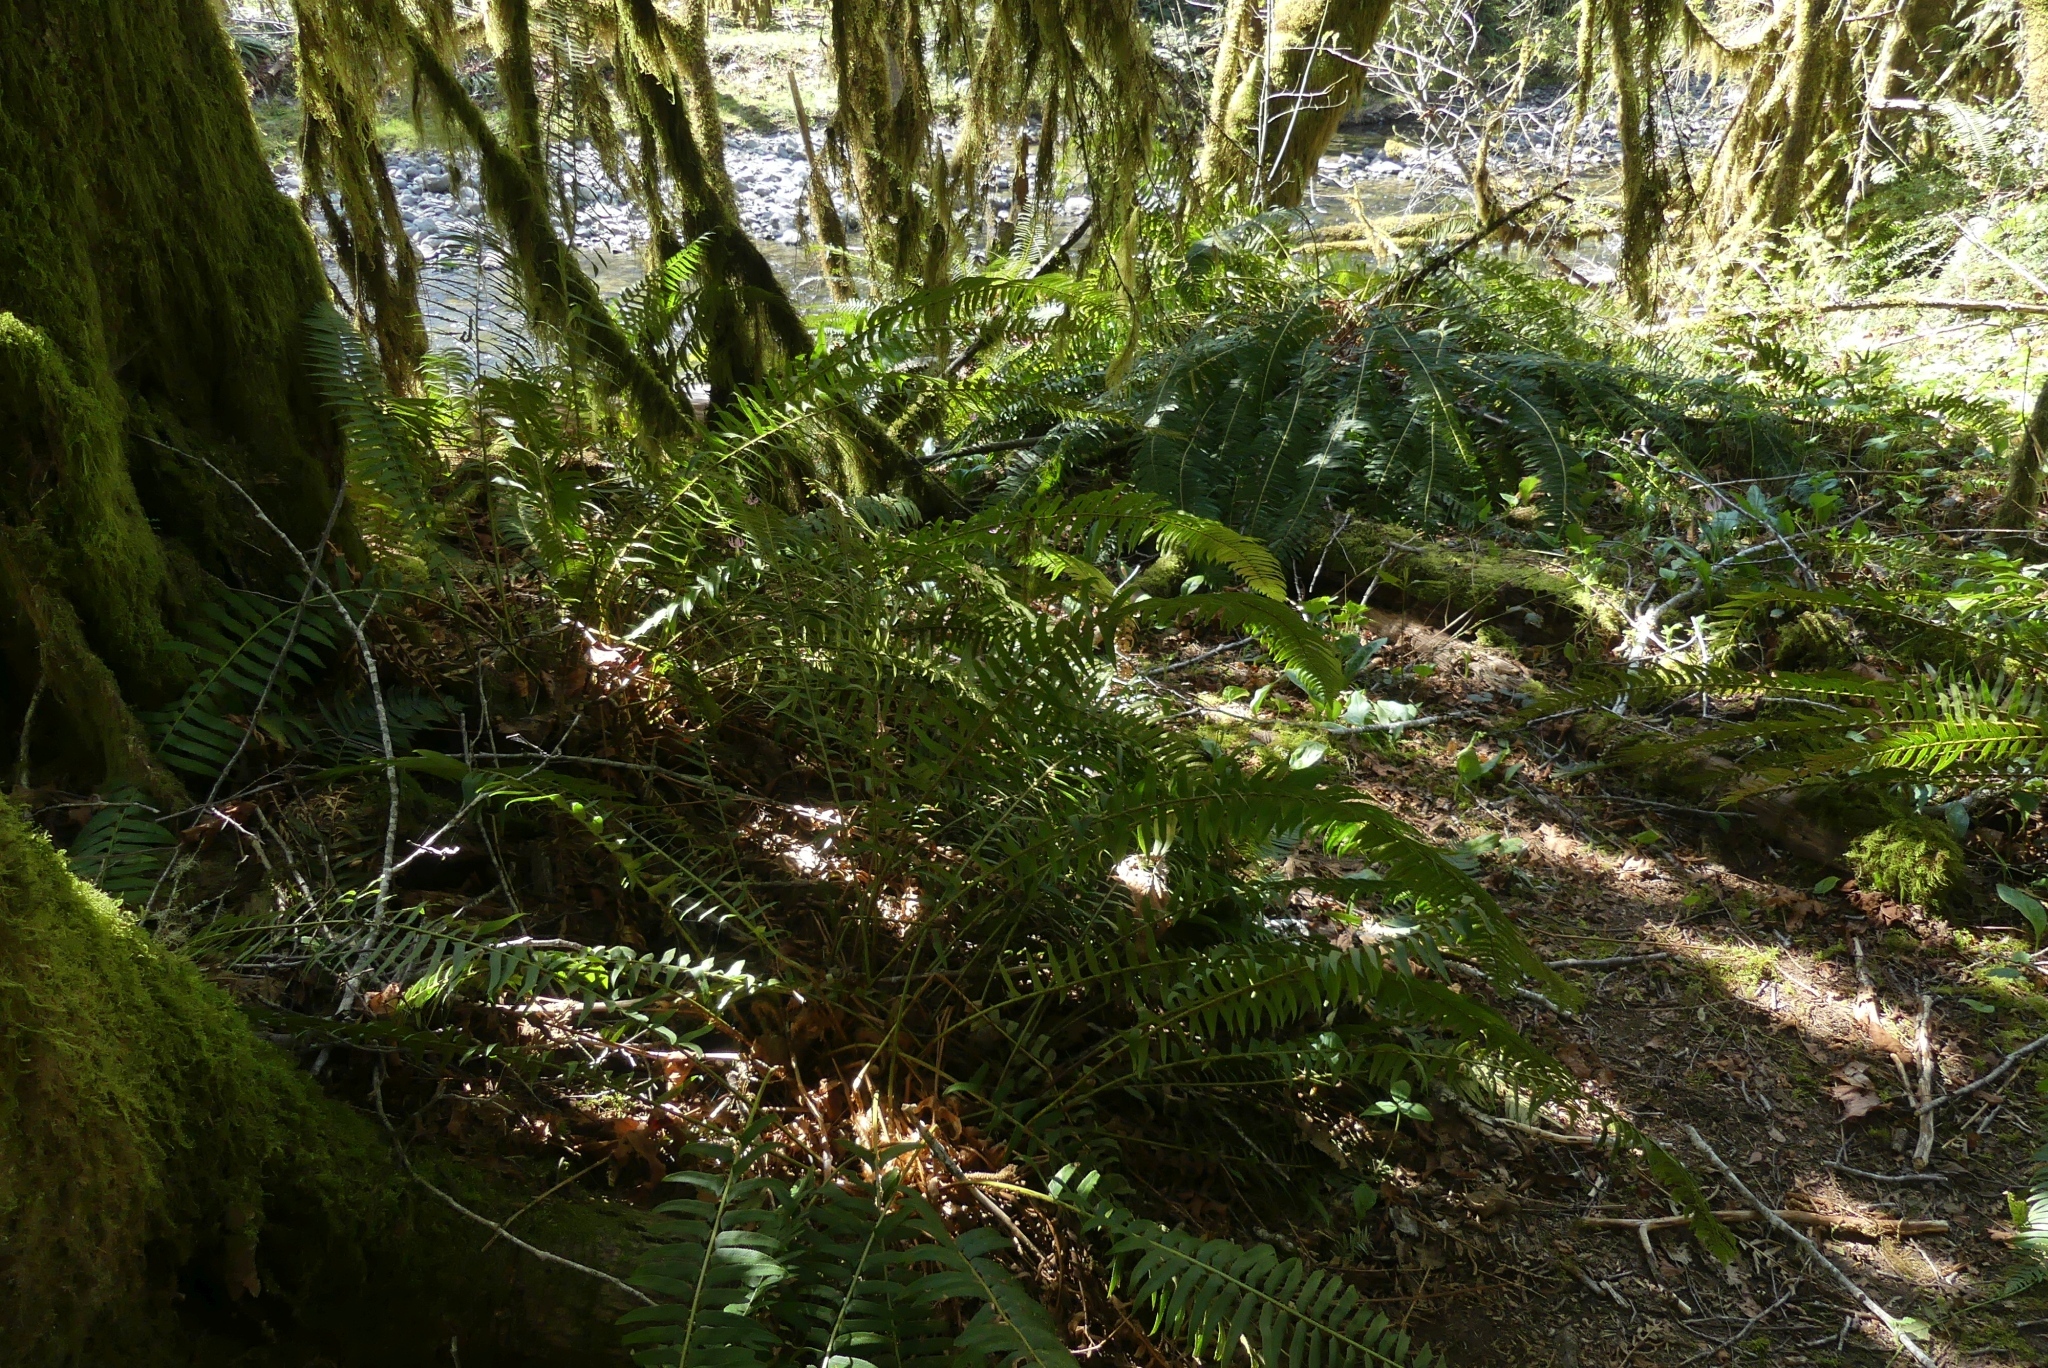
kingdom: Plantae
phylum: Tracheophyta
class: Polypodiopsida
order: Polypodiales
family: Dryopteridaceae
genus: Polystichum
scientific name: Polystichum munitum
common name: Western sword-fern
